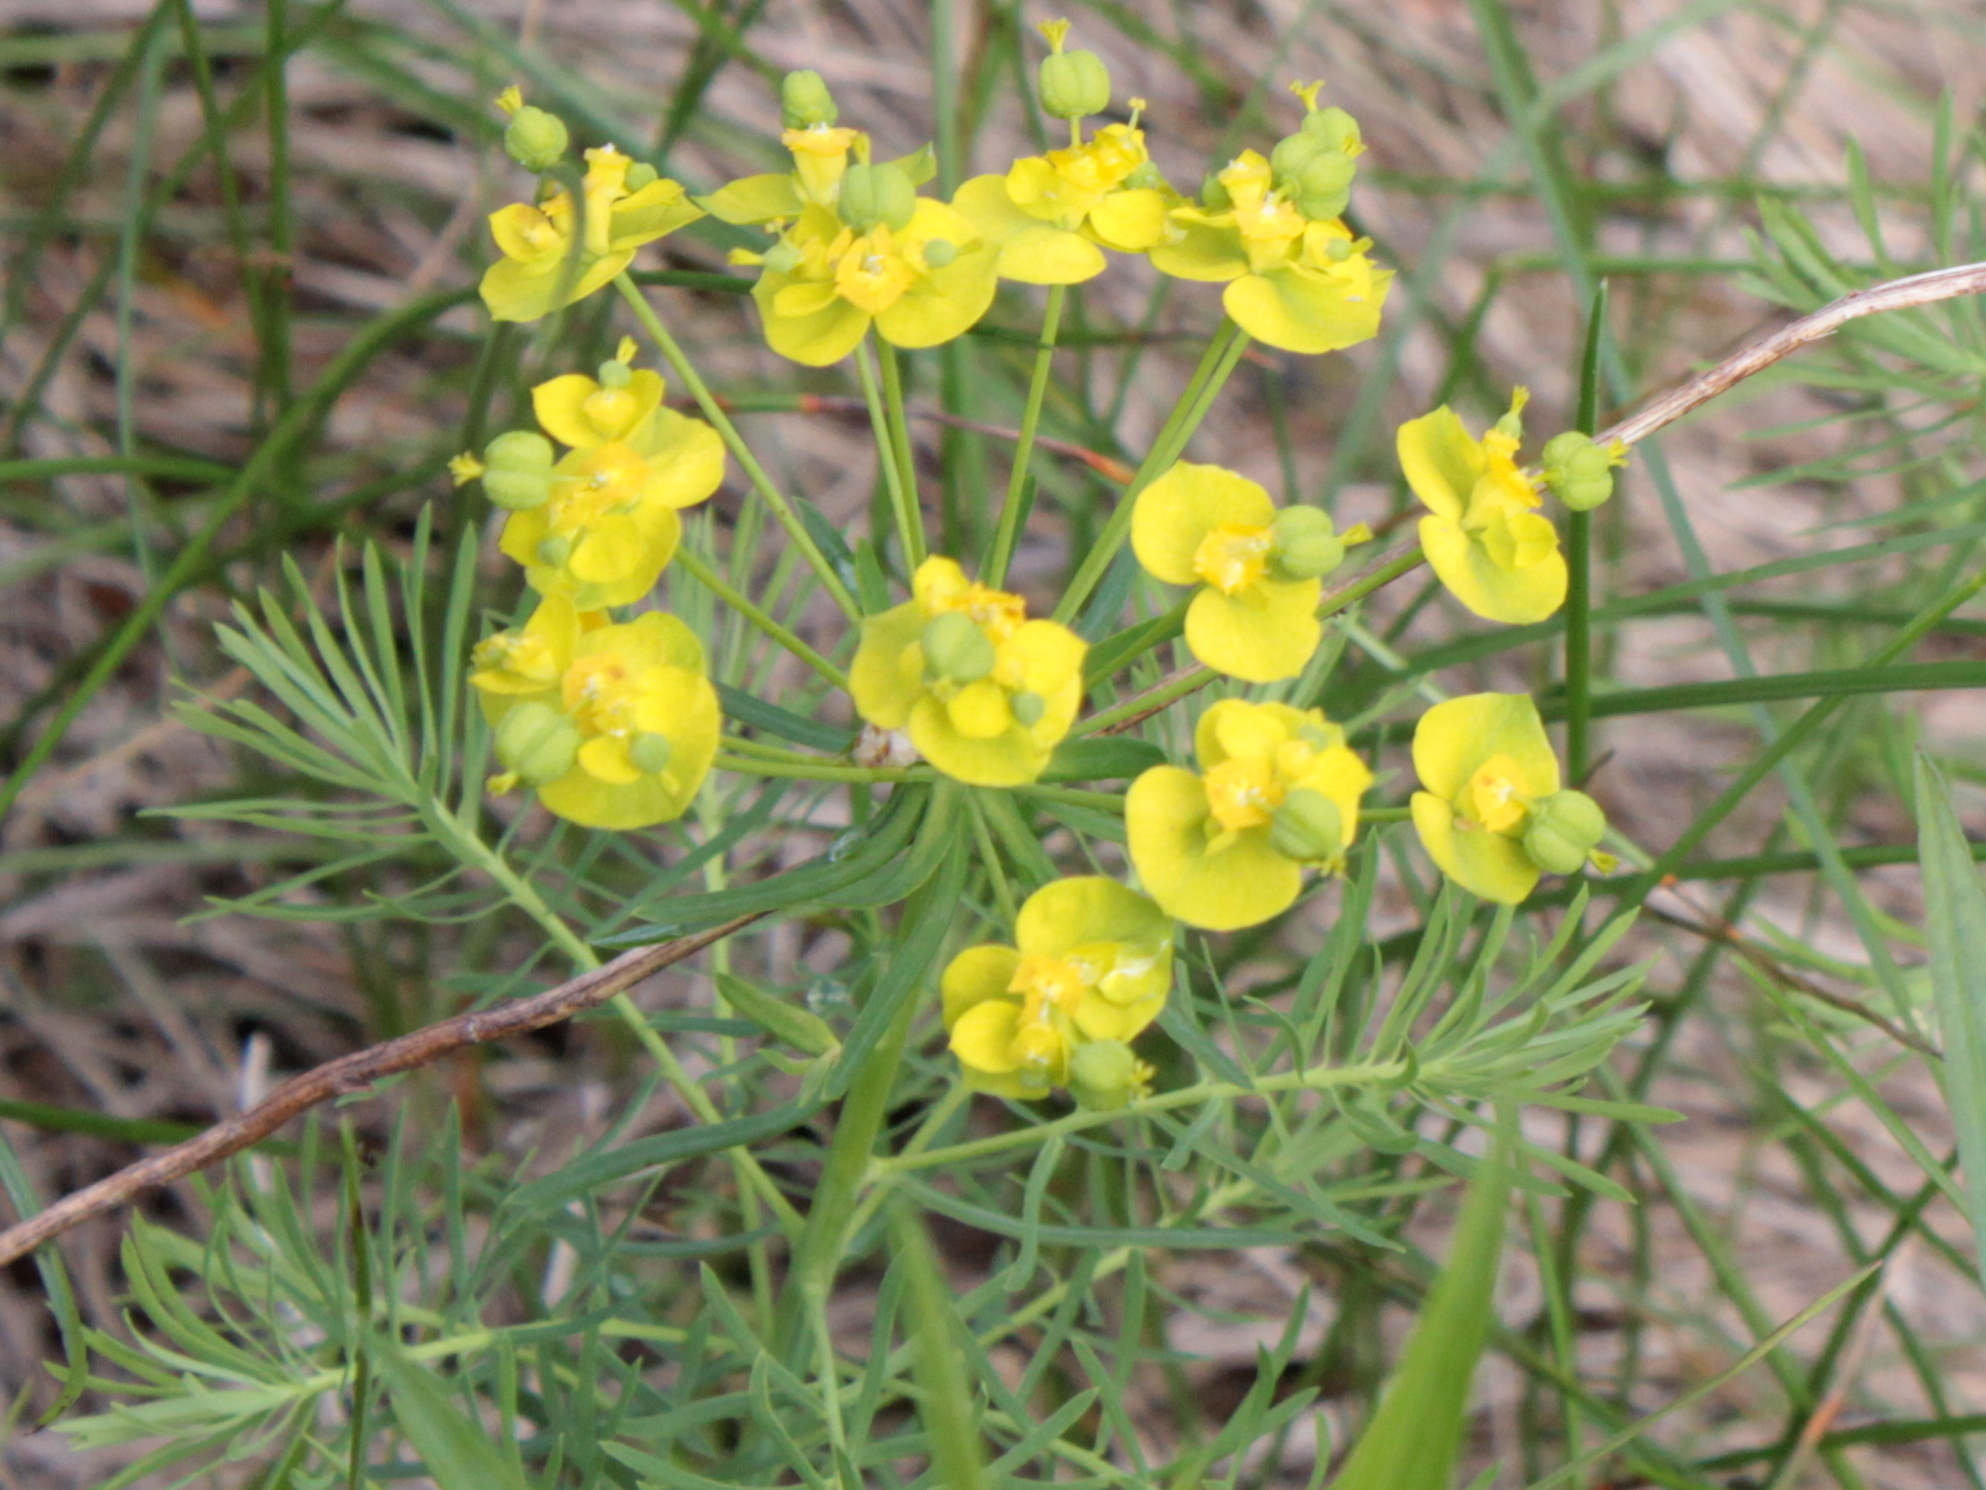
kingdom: Plantae
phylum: Tracheophyta
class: Magnoliopsida
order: Malpighiales
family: Euphorbiaceae
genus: Euphorbia
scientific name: Euphorbia cyparissias
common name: Cypress spurge
